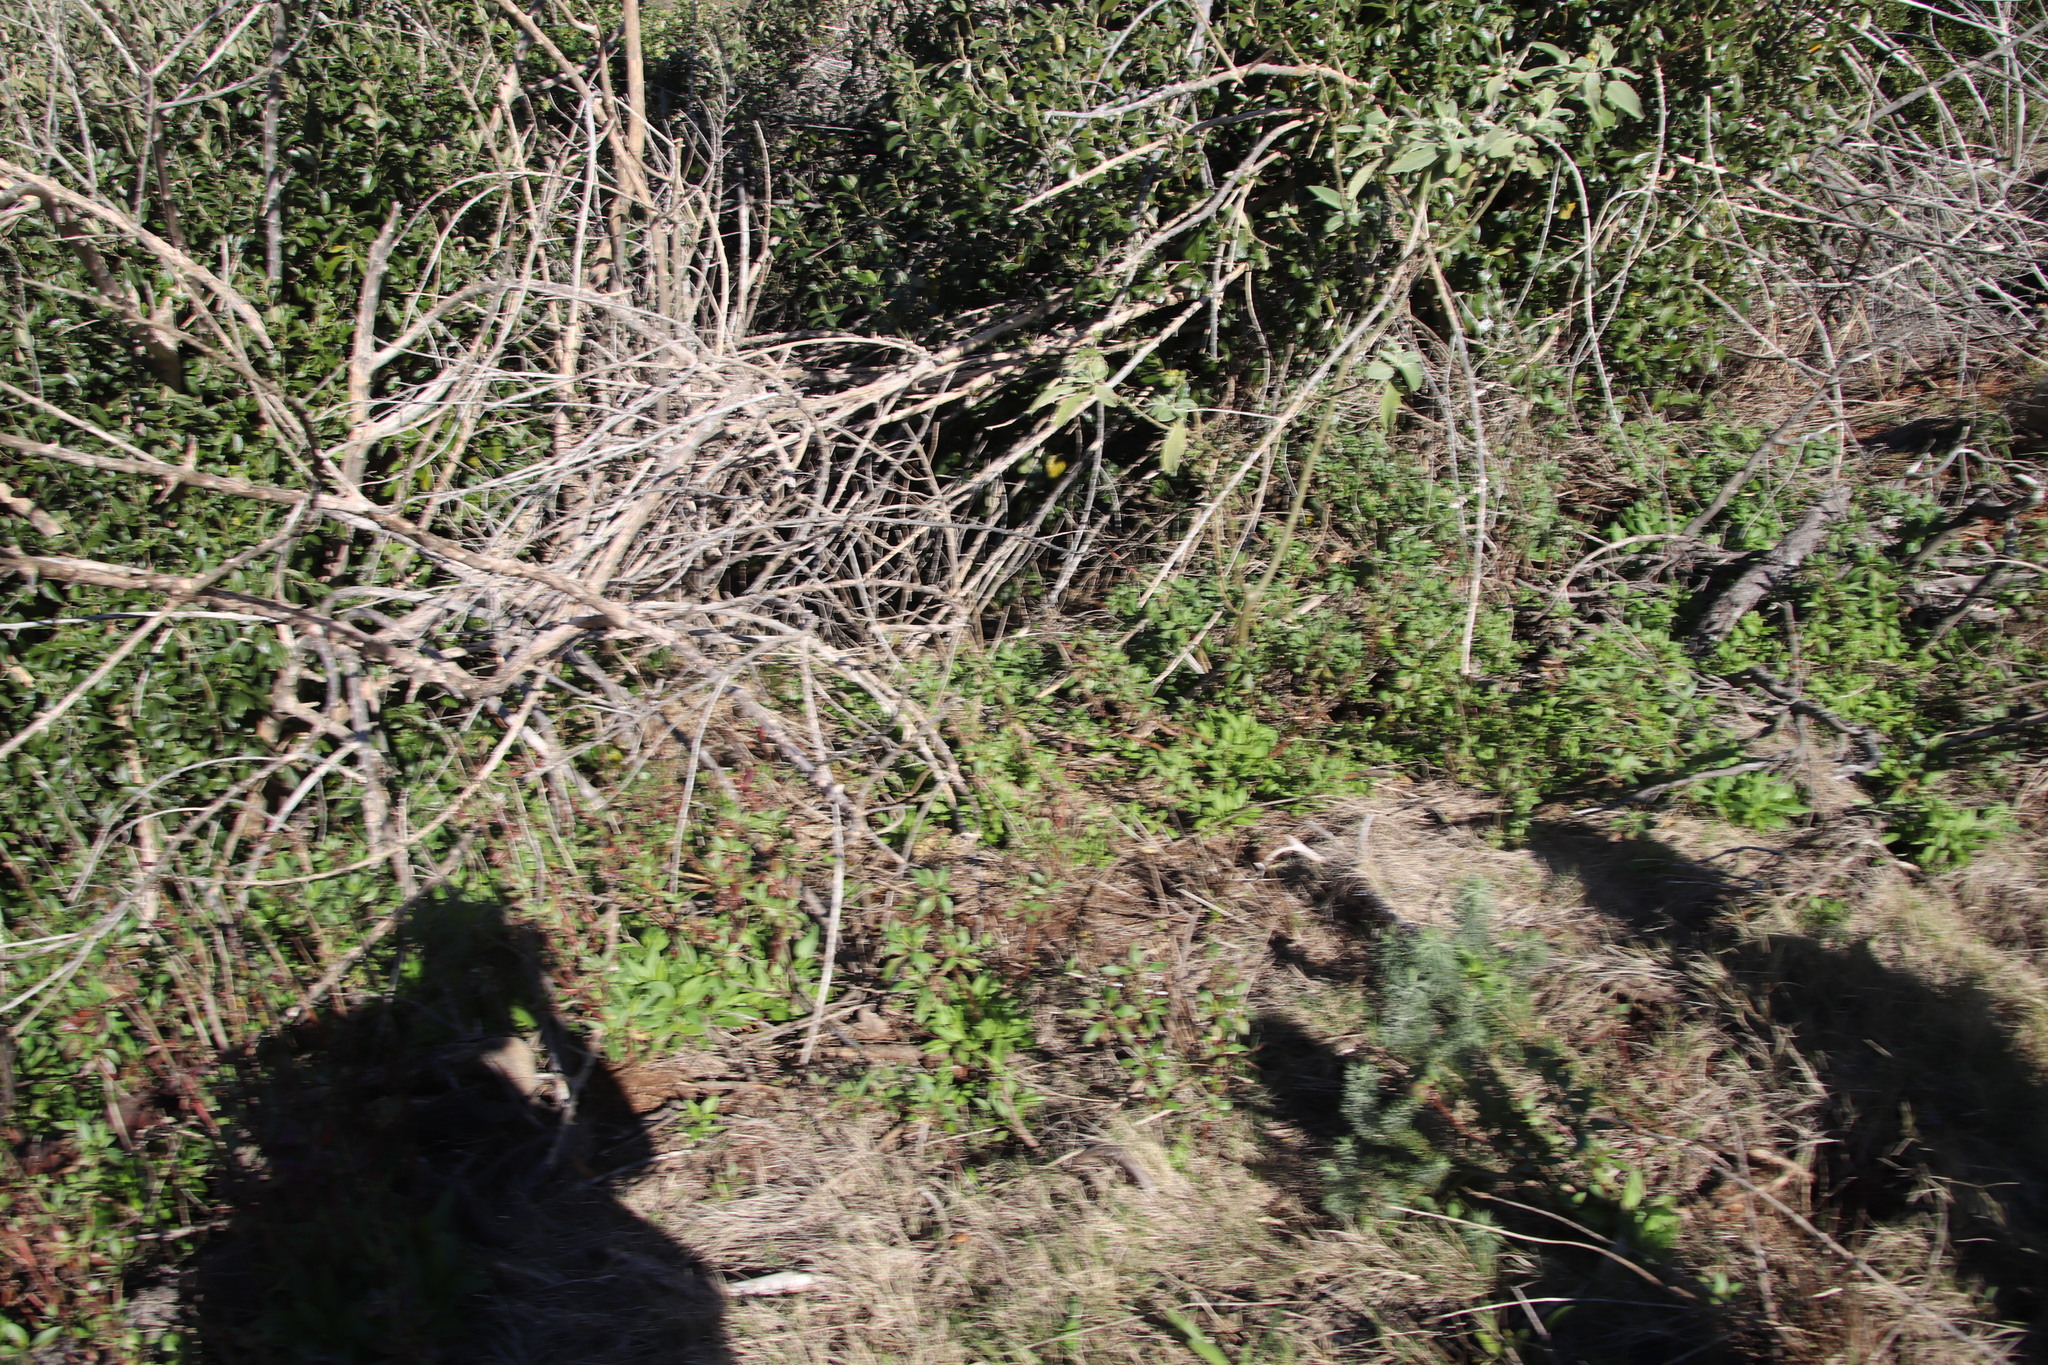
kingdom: Plantae
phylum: Tracheophyta
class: Magnoliopsida
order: Dipsacales
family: Caprifoliaceae
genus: Centranthus
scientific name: Centranthus ruber
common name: Red valerian
